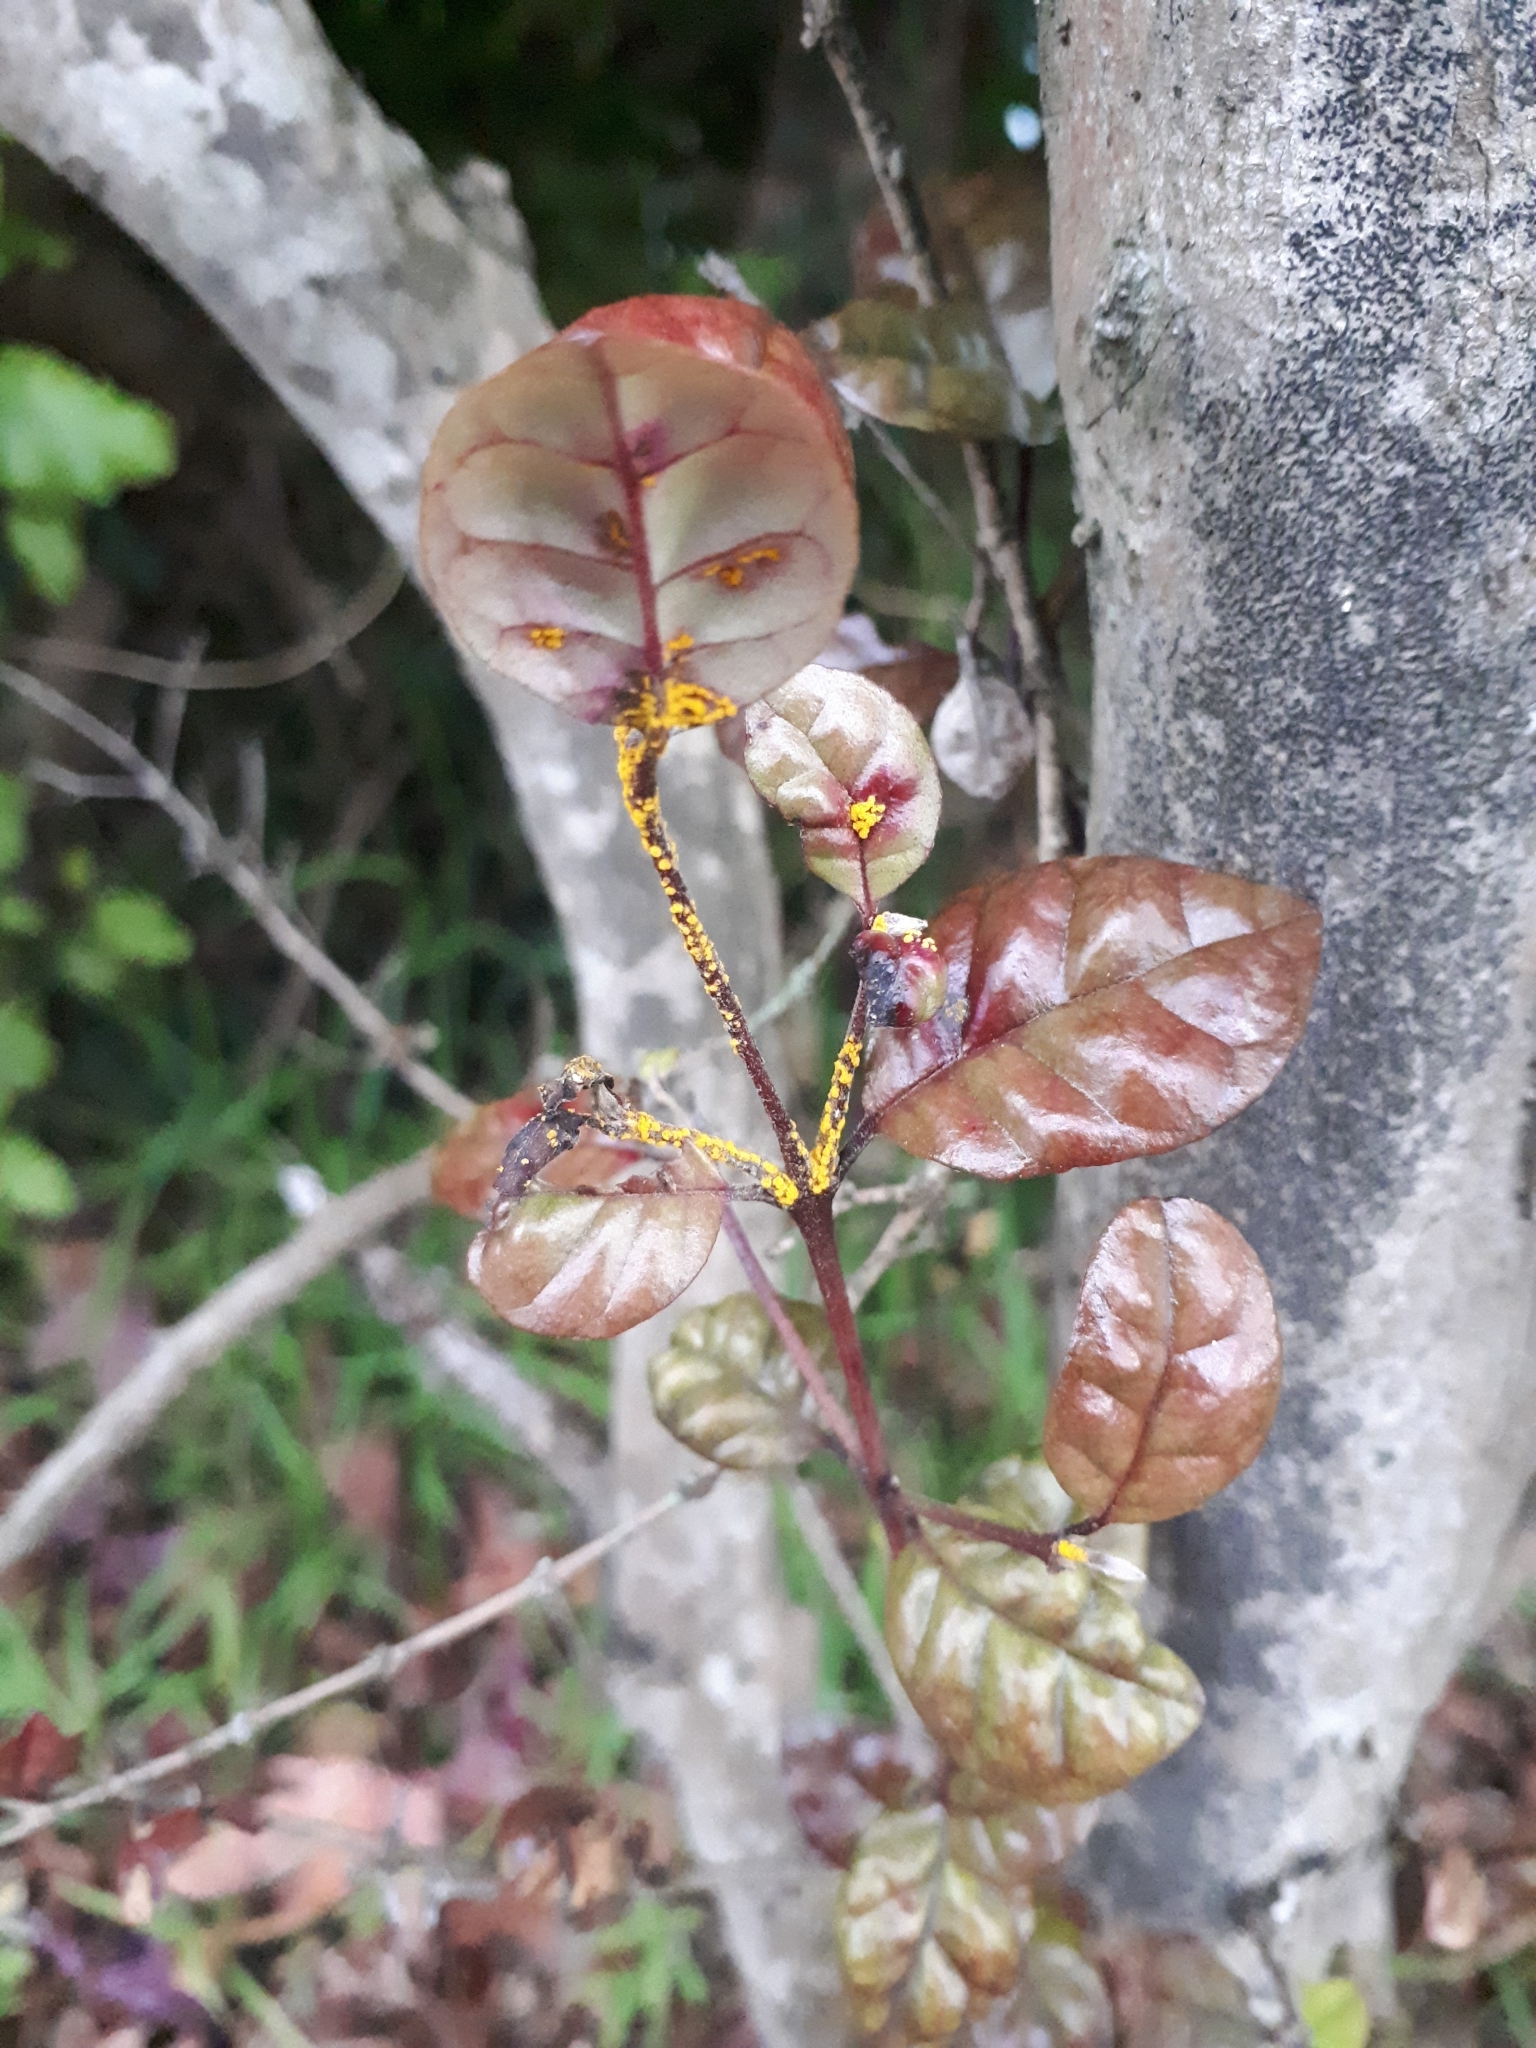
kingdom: Fungi
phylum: Basidiomycota
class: Pucciniomycetes
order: Pucciniales
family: Sphaerophragmiaceae
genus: Austropuccinia
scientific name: Austropuccinia psidii
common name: Myrtle rust
